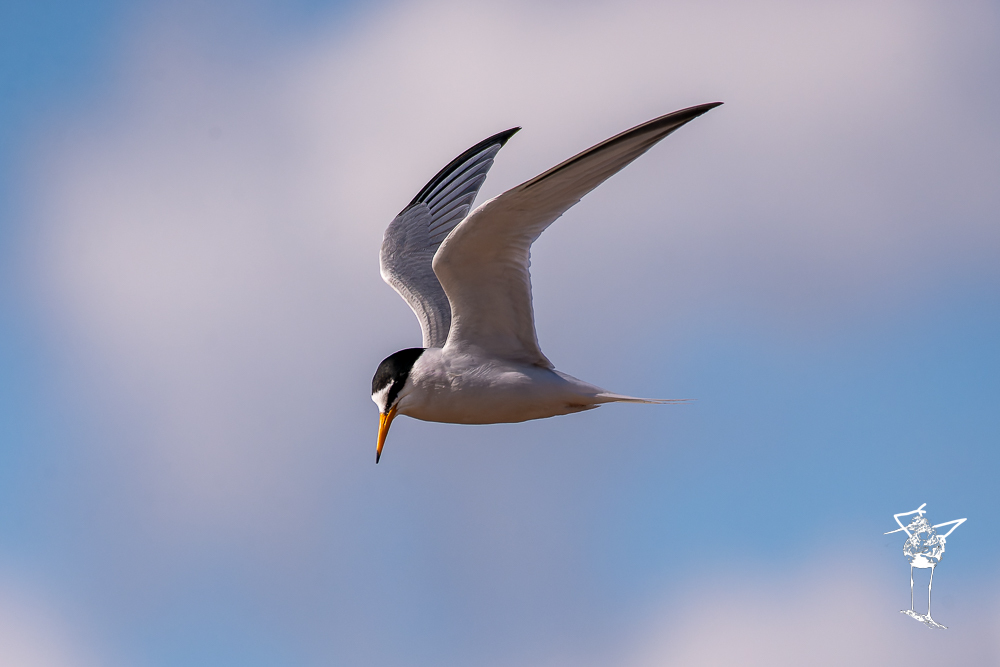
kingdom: Animalia
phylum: Chordata
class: Aves
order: Charadriiformes
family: Laridae
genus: Sternula
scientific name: Sternula albifrons
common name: Little tern
